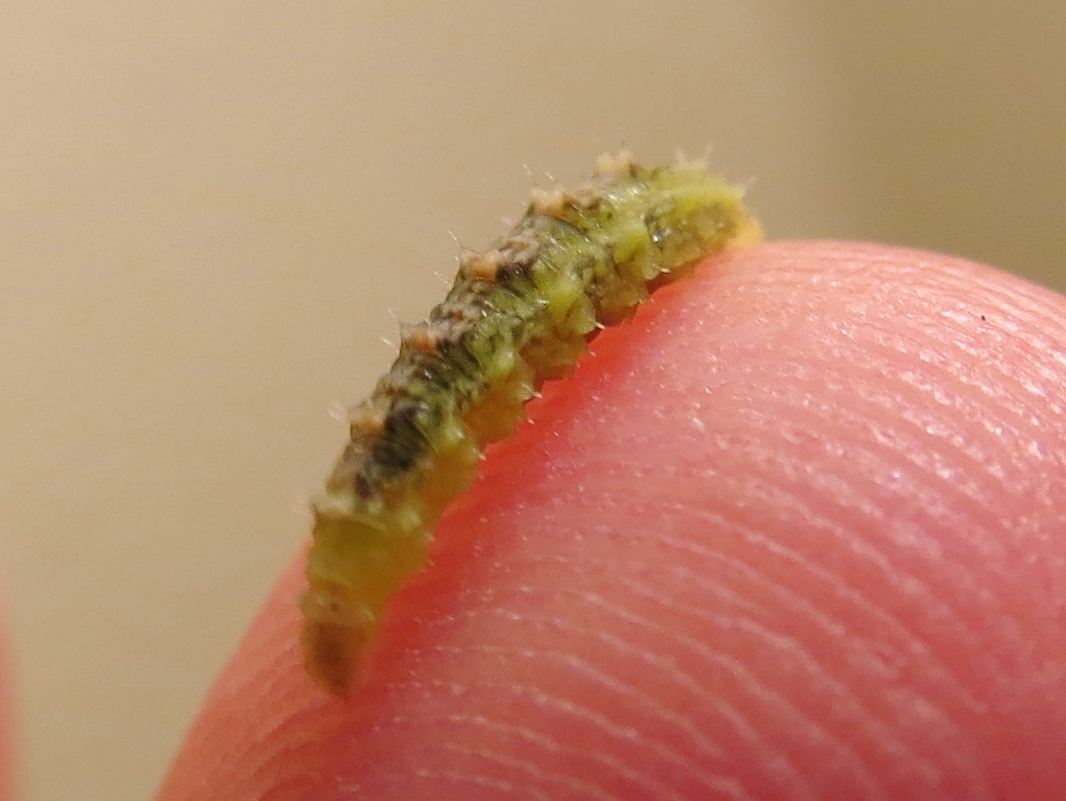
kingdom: Animalia
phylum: Arthropoda
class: Insecta
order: Diptera
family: Syrphidae
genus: Dioprosopa
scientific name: Dioprosopa clavatus
